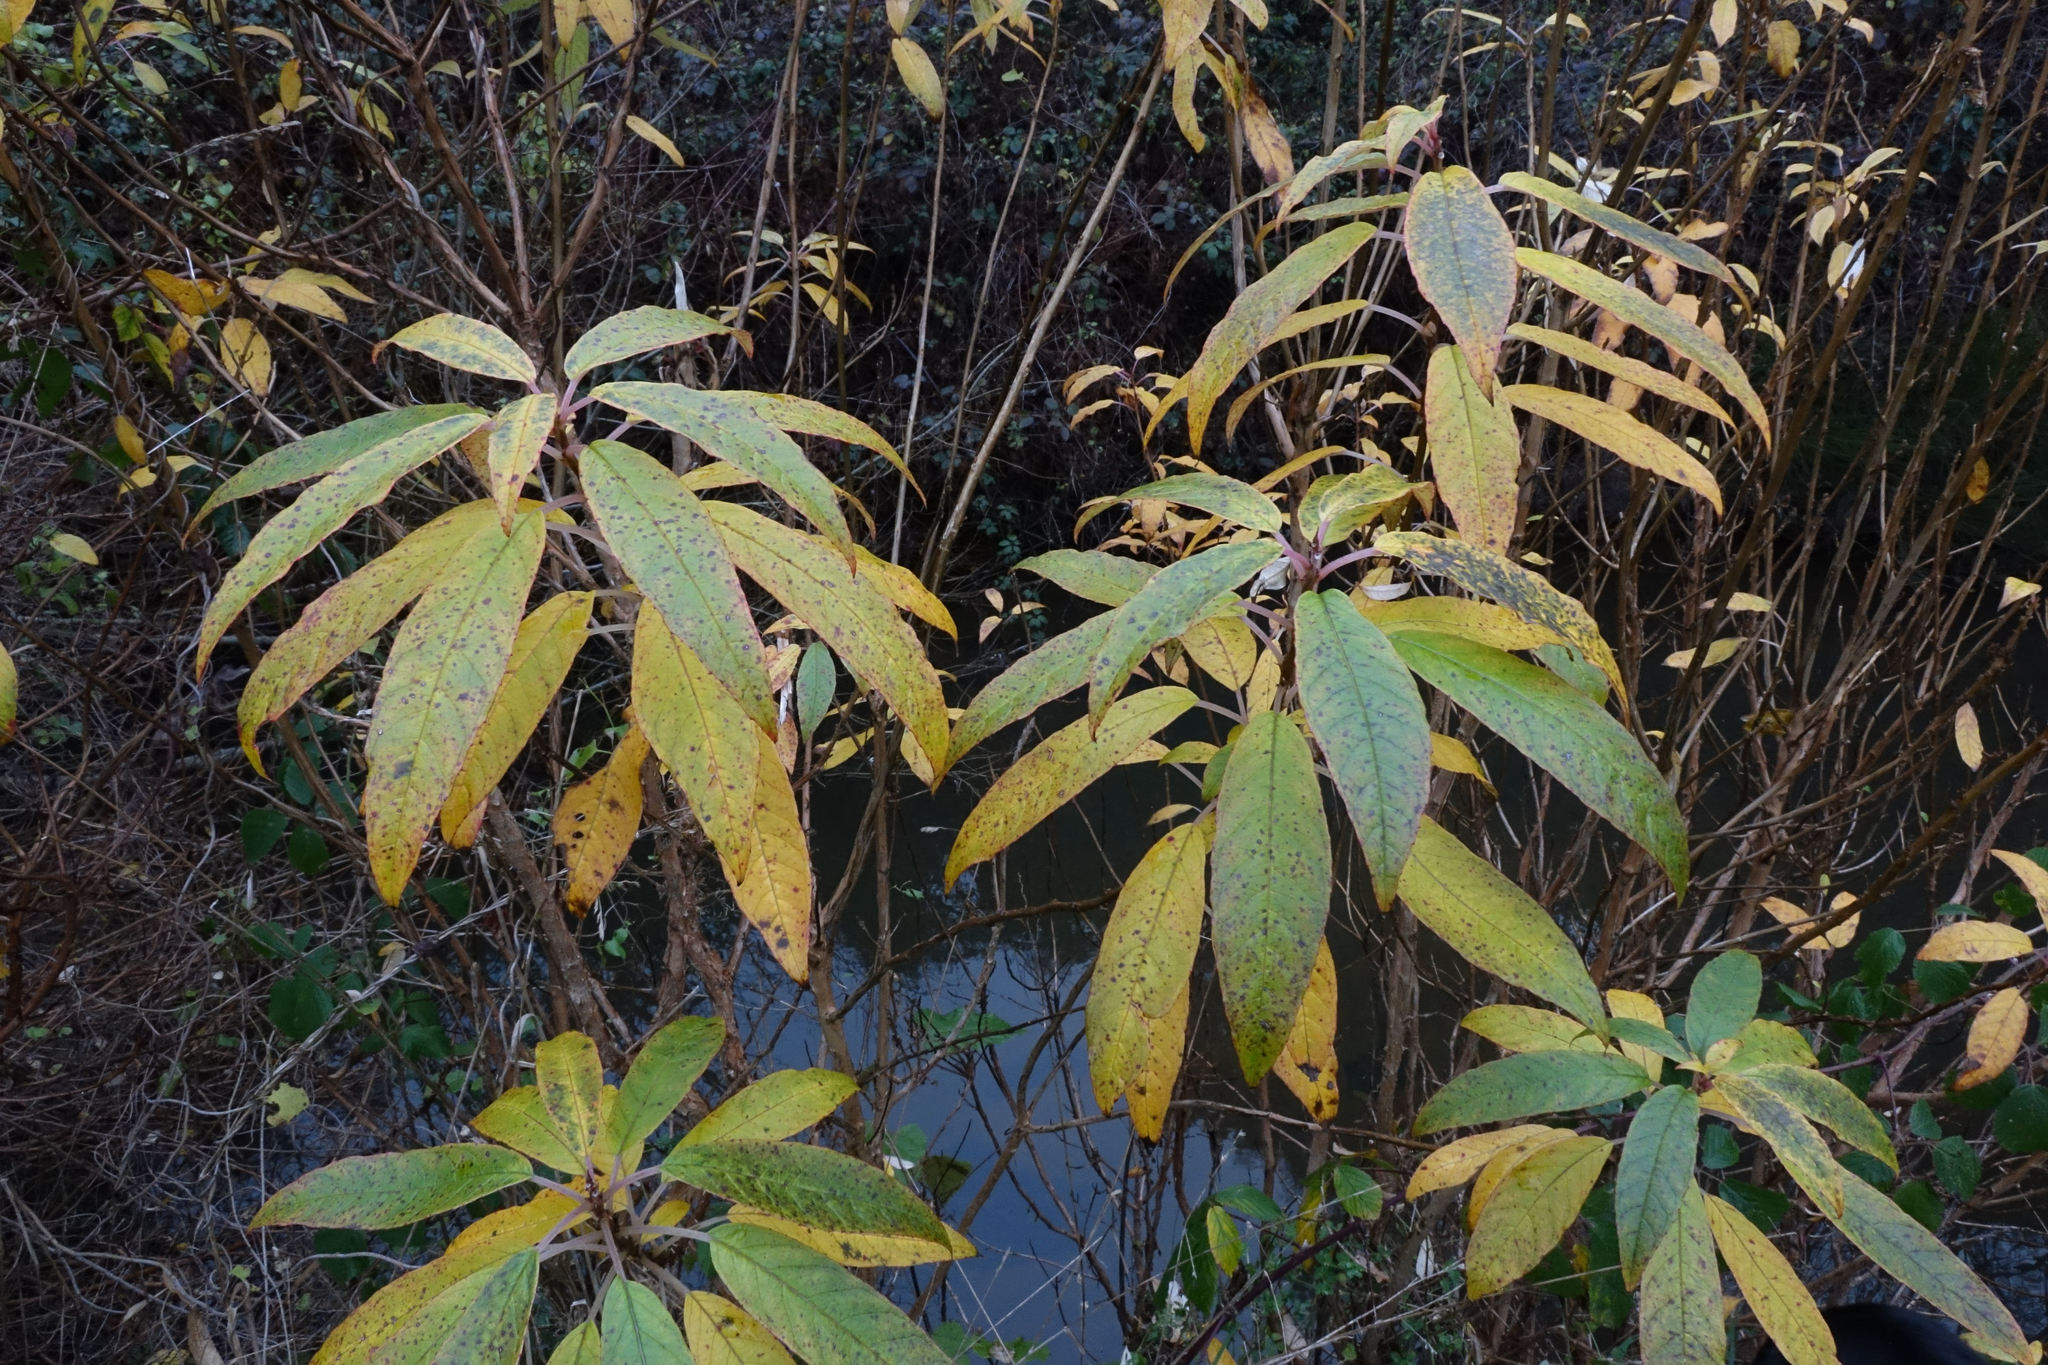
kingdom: Plantae
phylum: Tracheophyta
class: Magnoliopsida
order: Myrtales
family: Onagraceae
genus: Fuchsia
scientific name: Fuchsia excorticata
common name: Tree fuchsia
